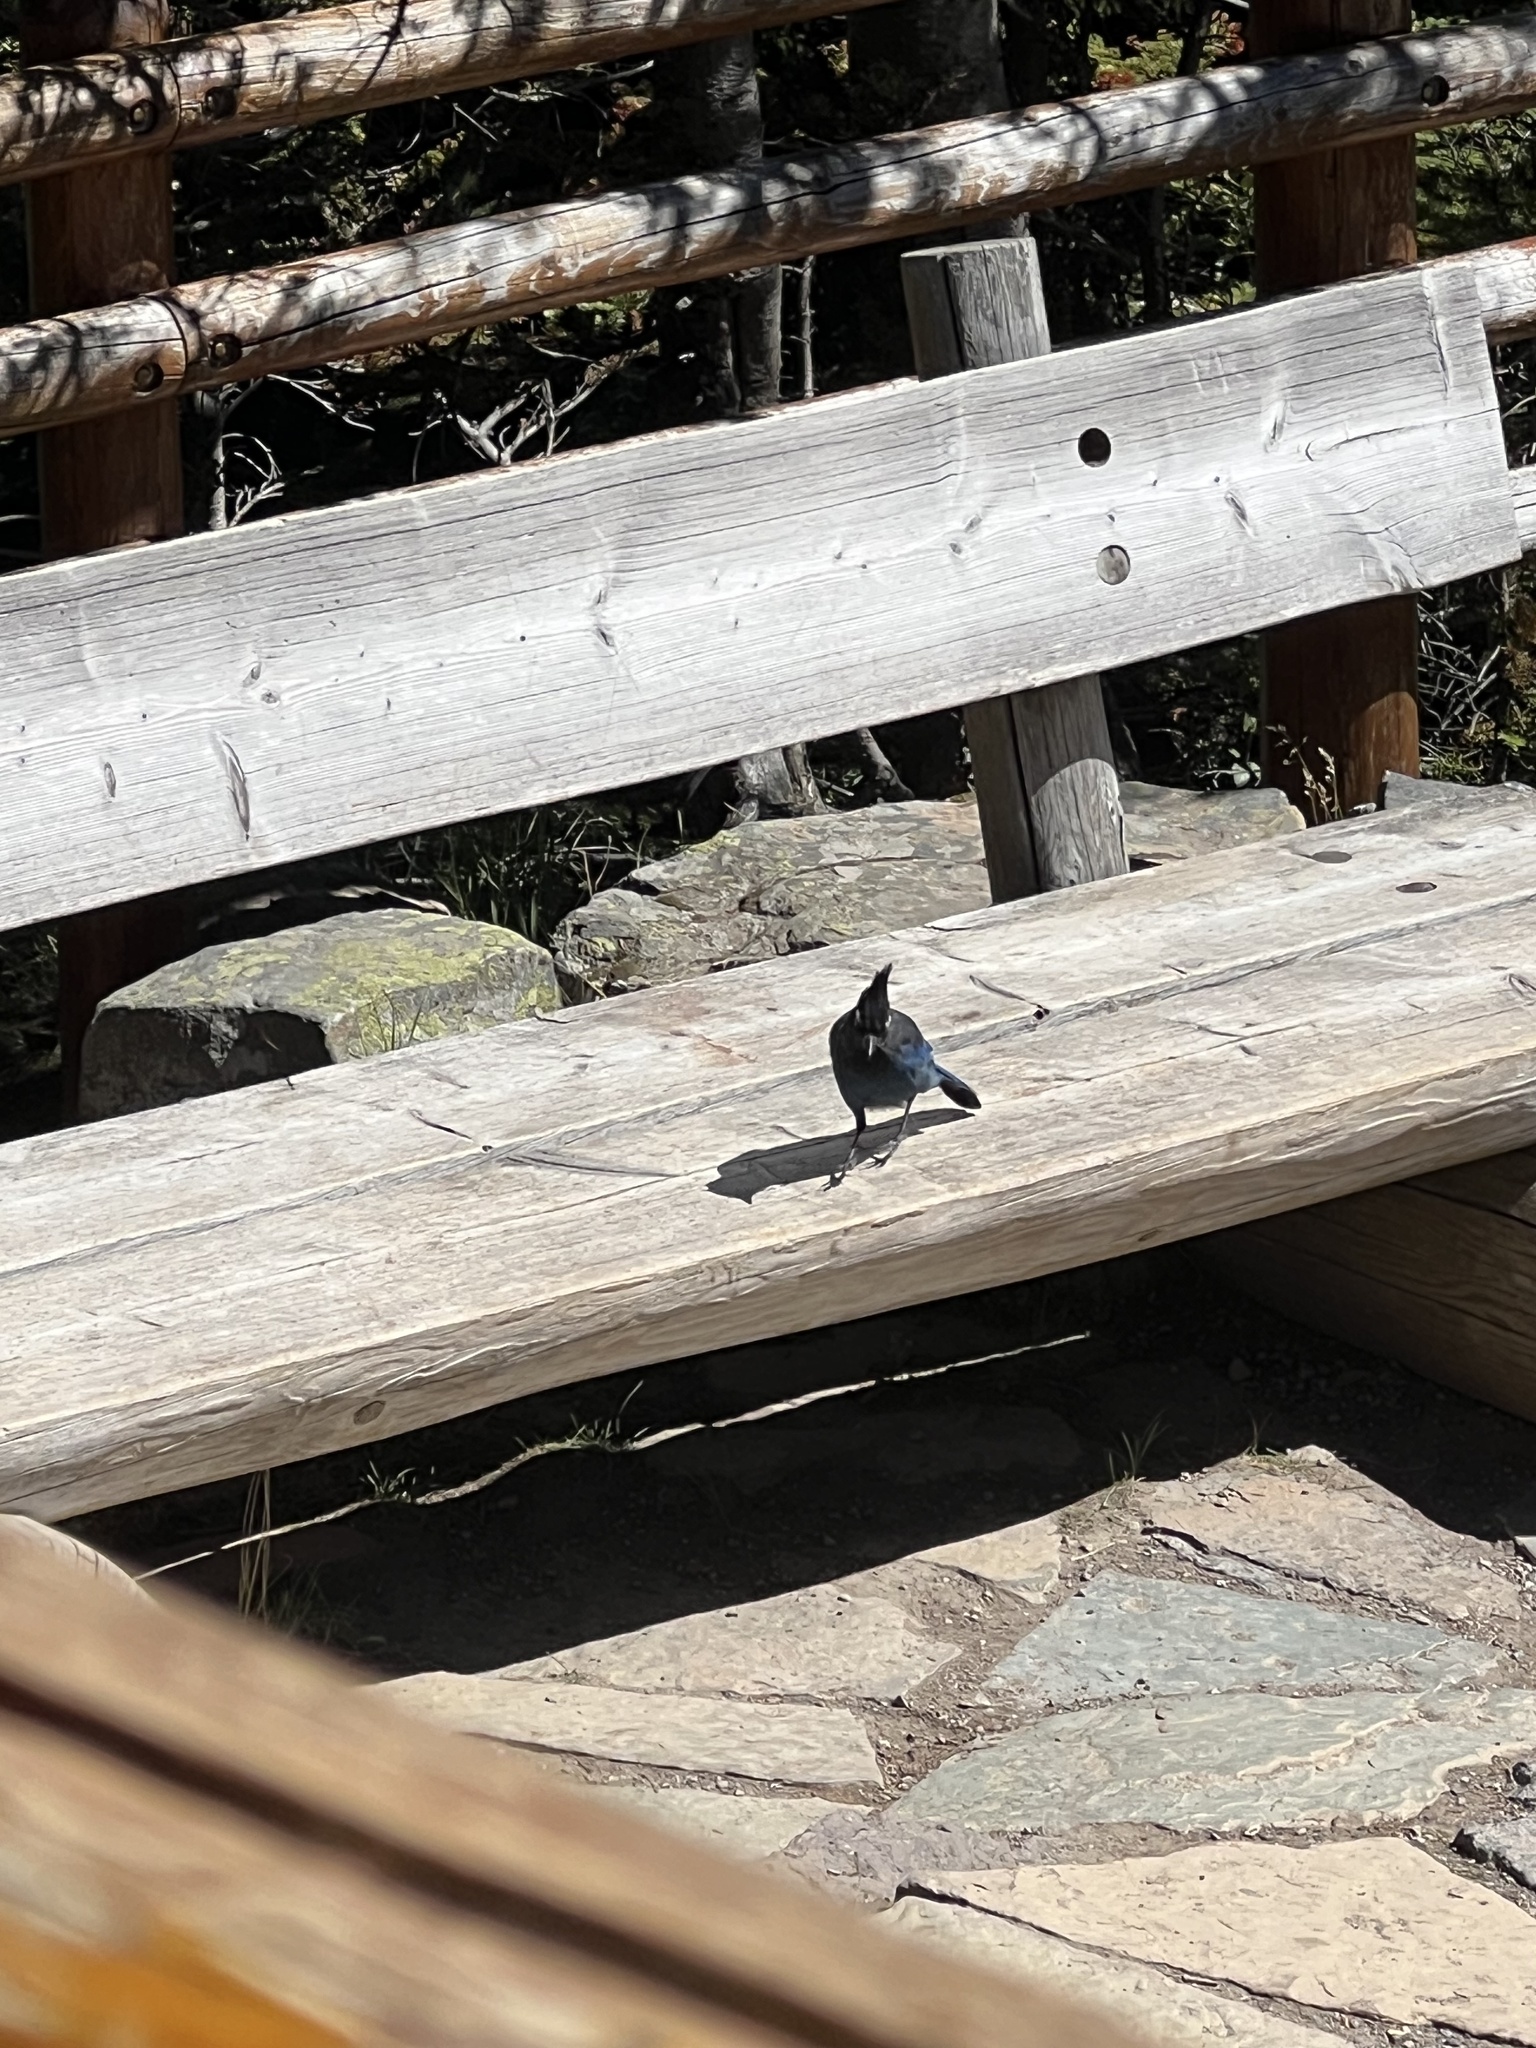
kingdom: Animalia
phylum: Chordata
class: Aves
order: Passeriformes
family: Corvidae
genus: Cyanocitta
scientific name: Cyanocitta stelleri
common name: Steller's jay
